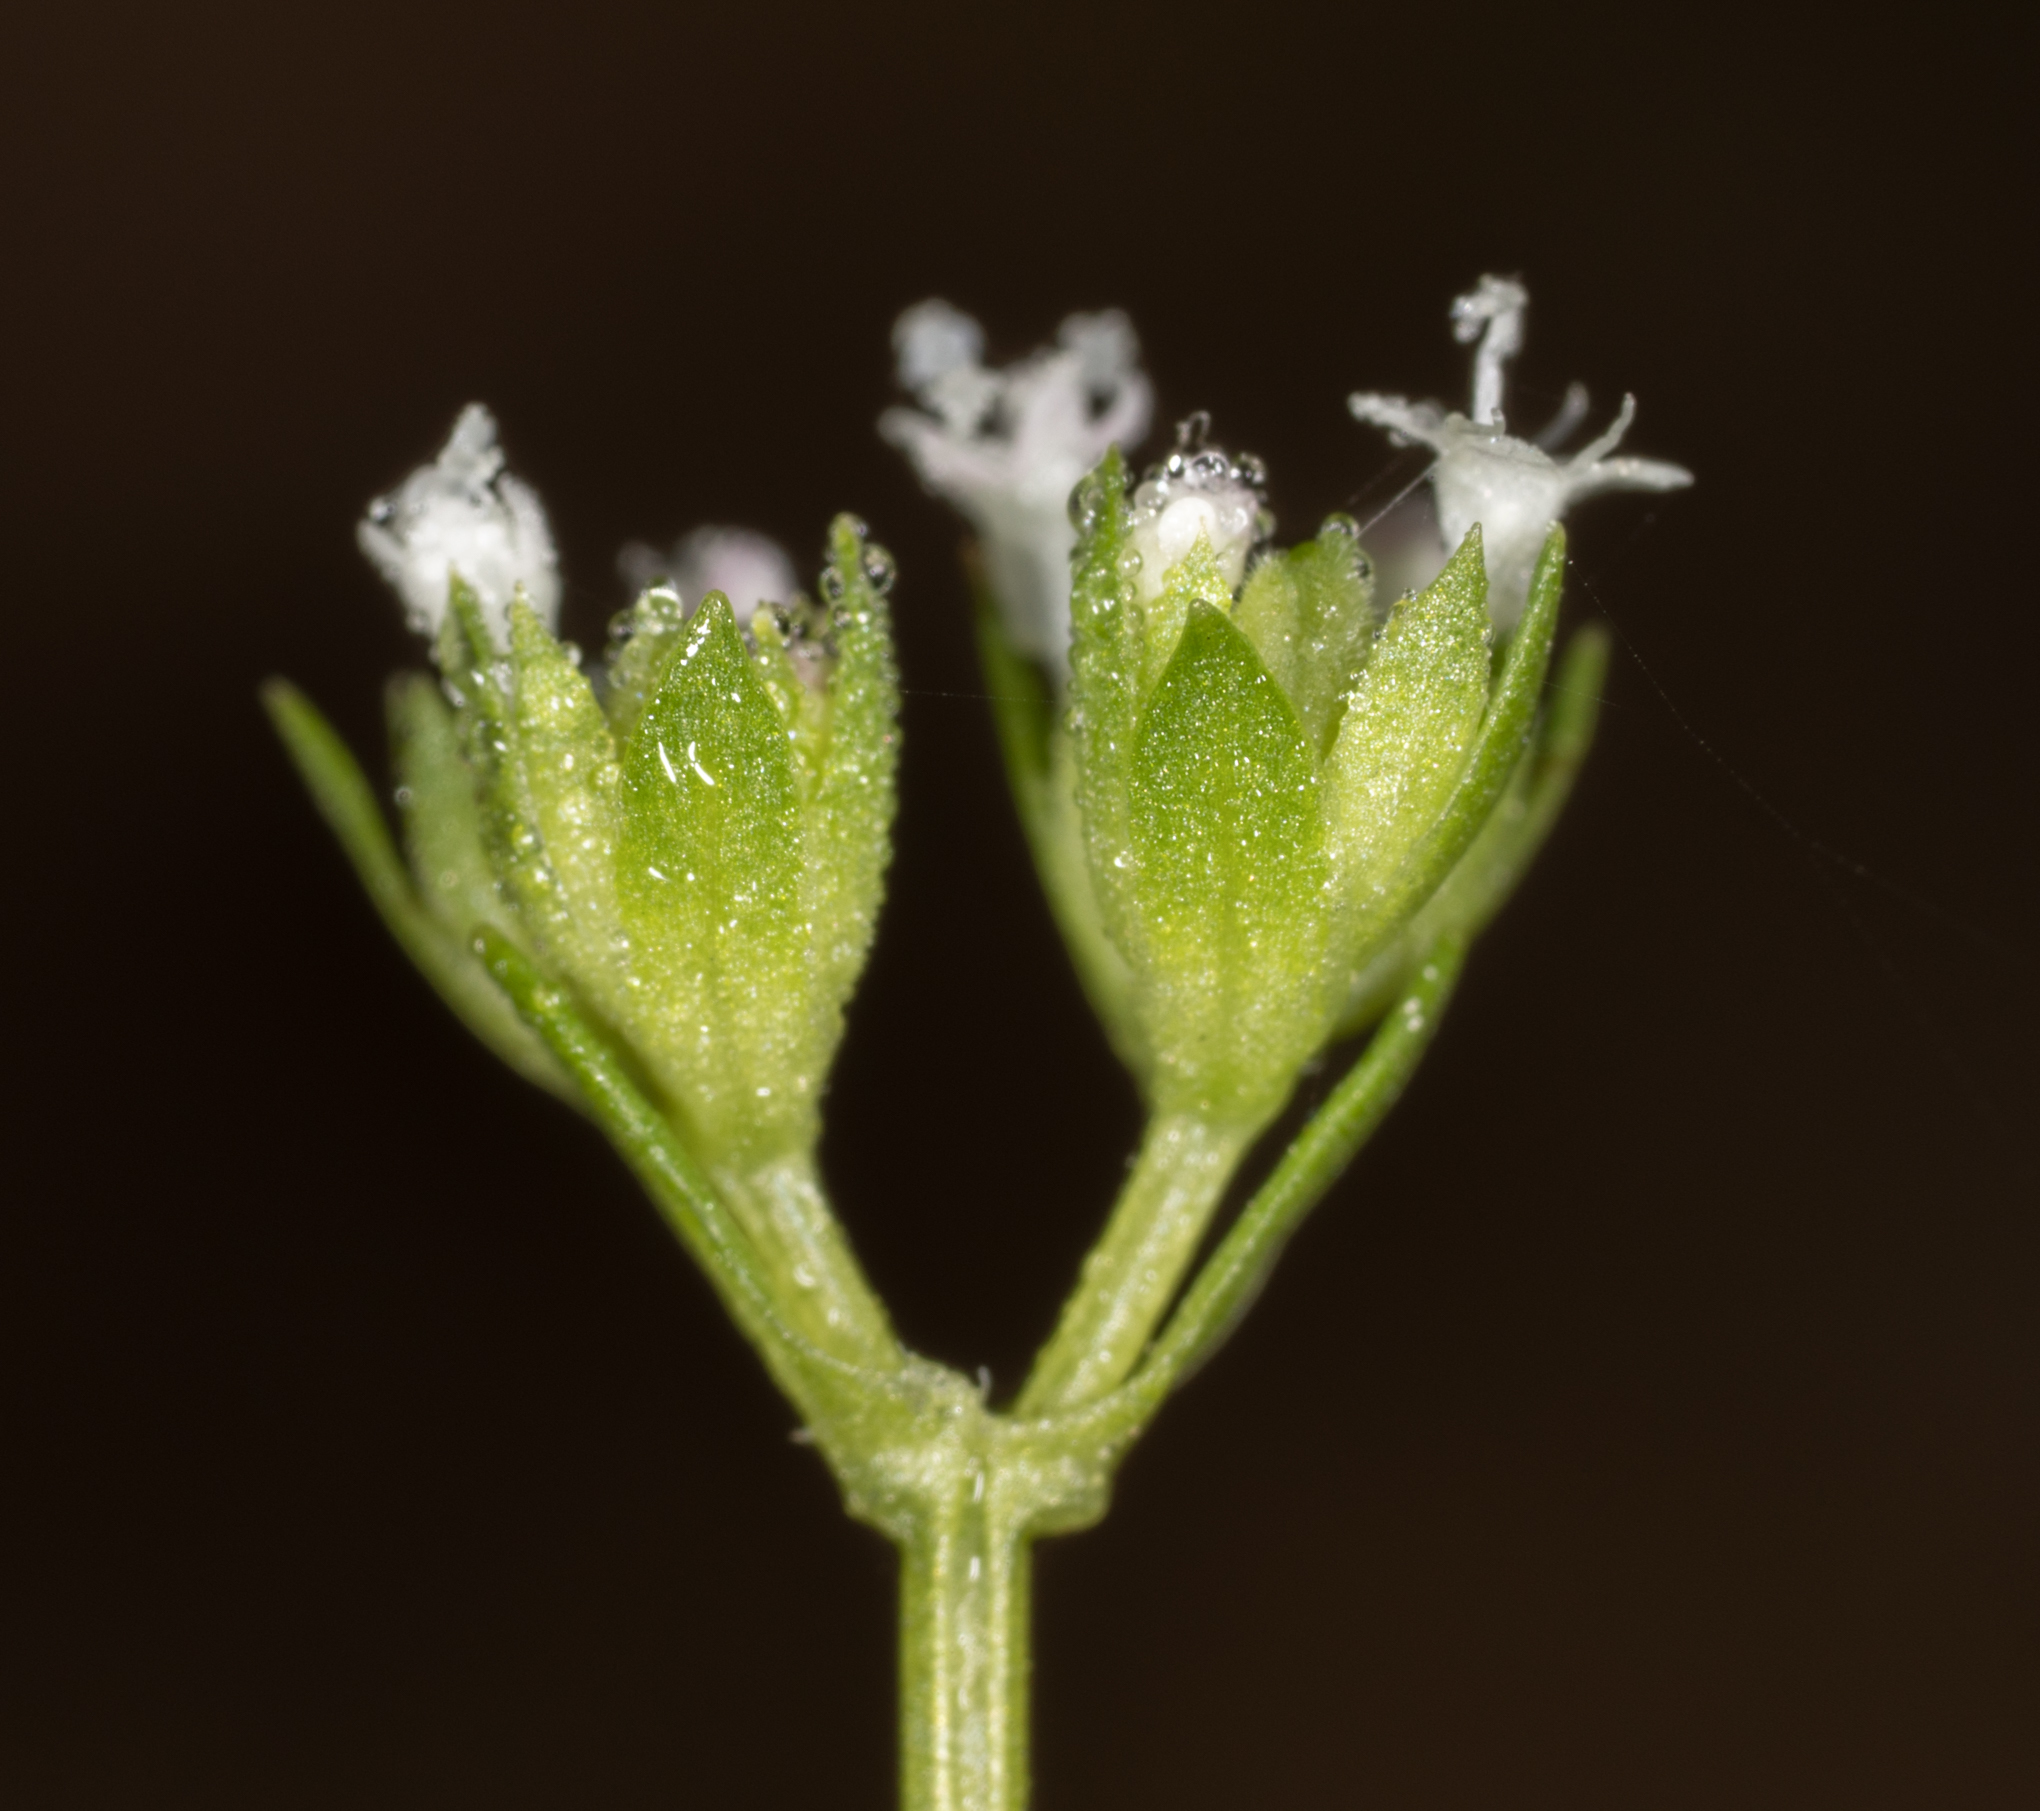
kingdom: Plantae
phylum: Tracheophyta
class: Magnoliopsida
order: Dipsacales
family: Caprifoliaceae
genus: Valerianella
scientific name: Valerianella radiata
